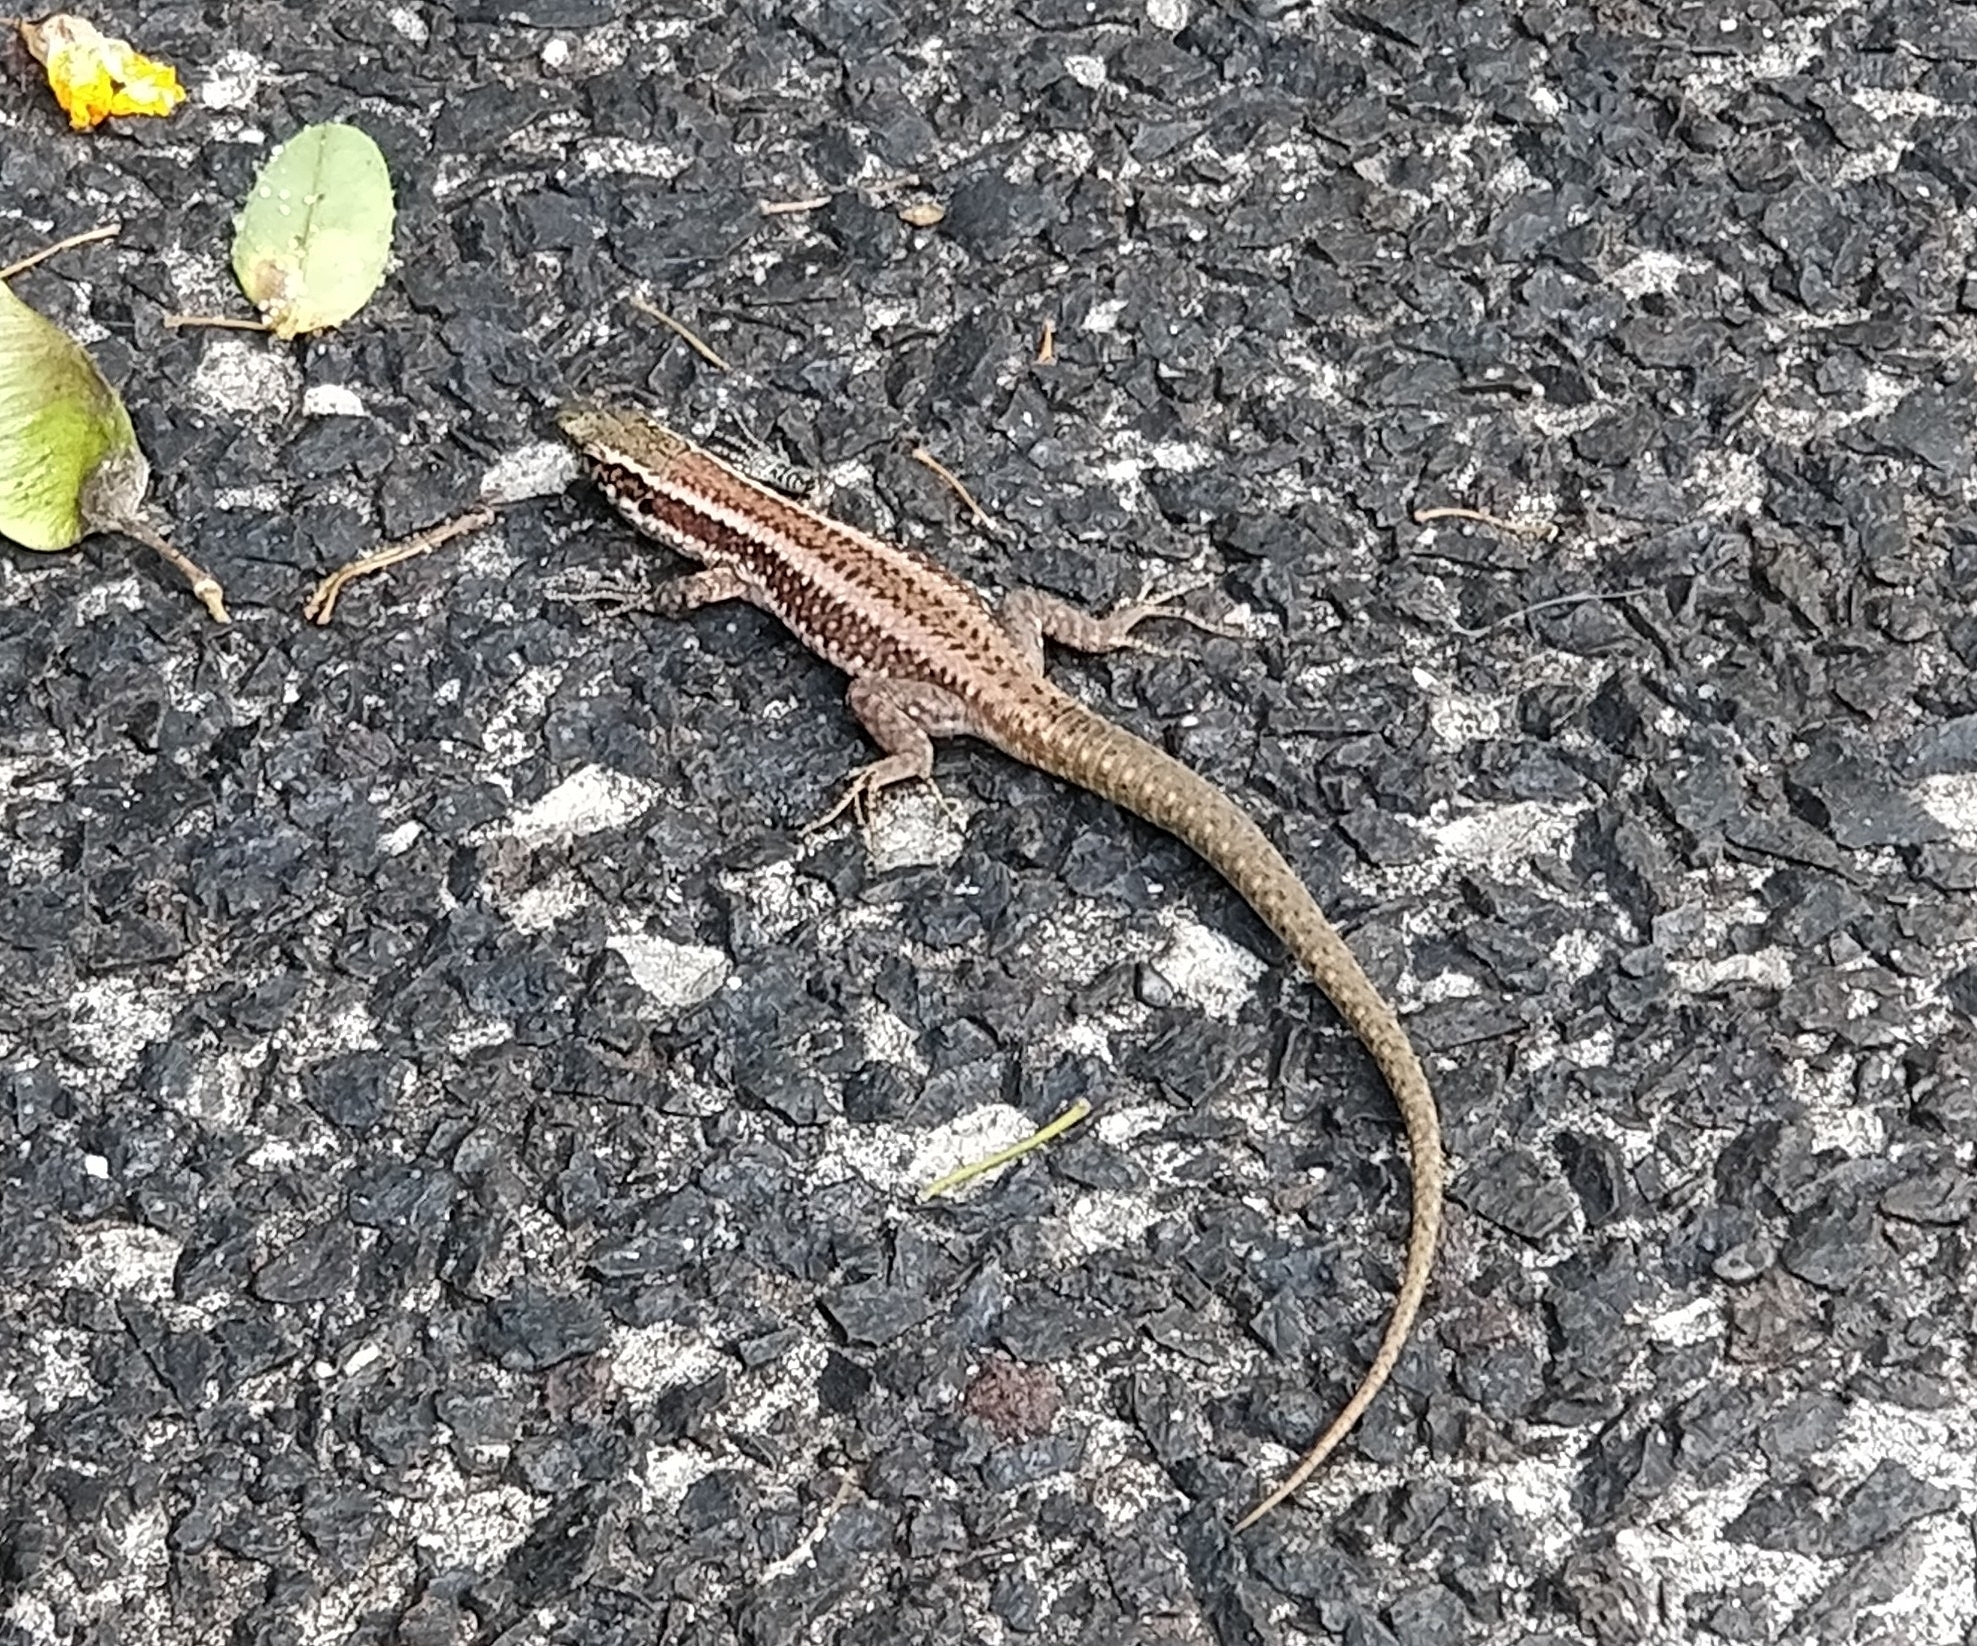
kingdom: Animalia
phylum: Chordata
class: Squamata
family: Lacertidae
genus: Teira
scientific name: Teira dugesii
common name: Madeira lizard
